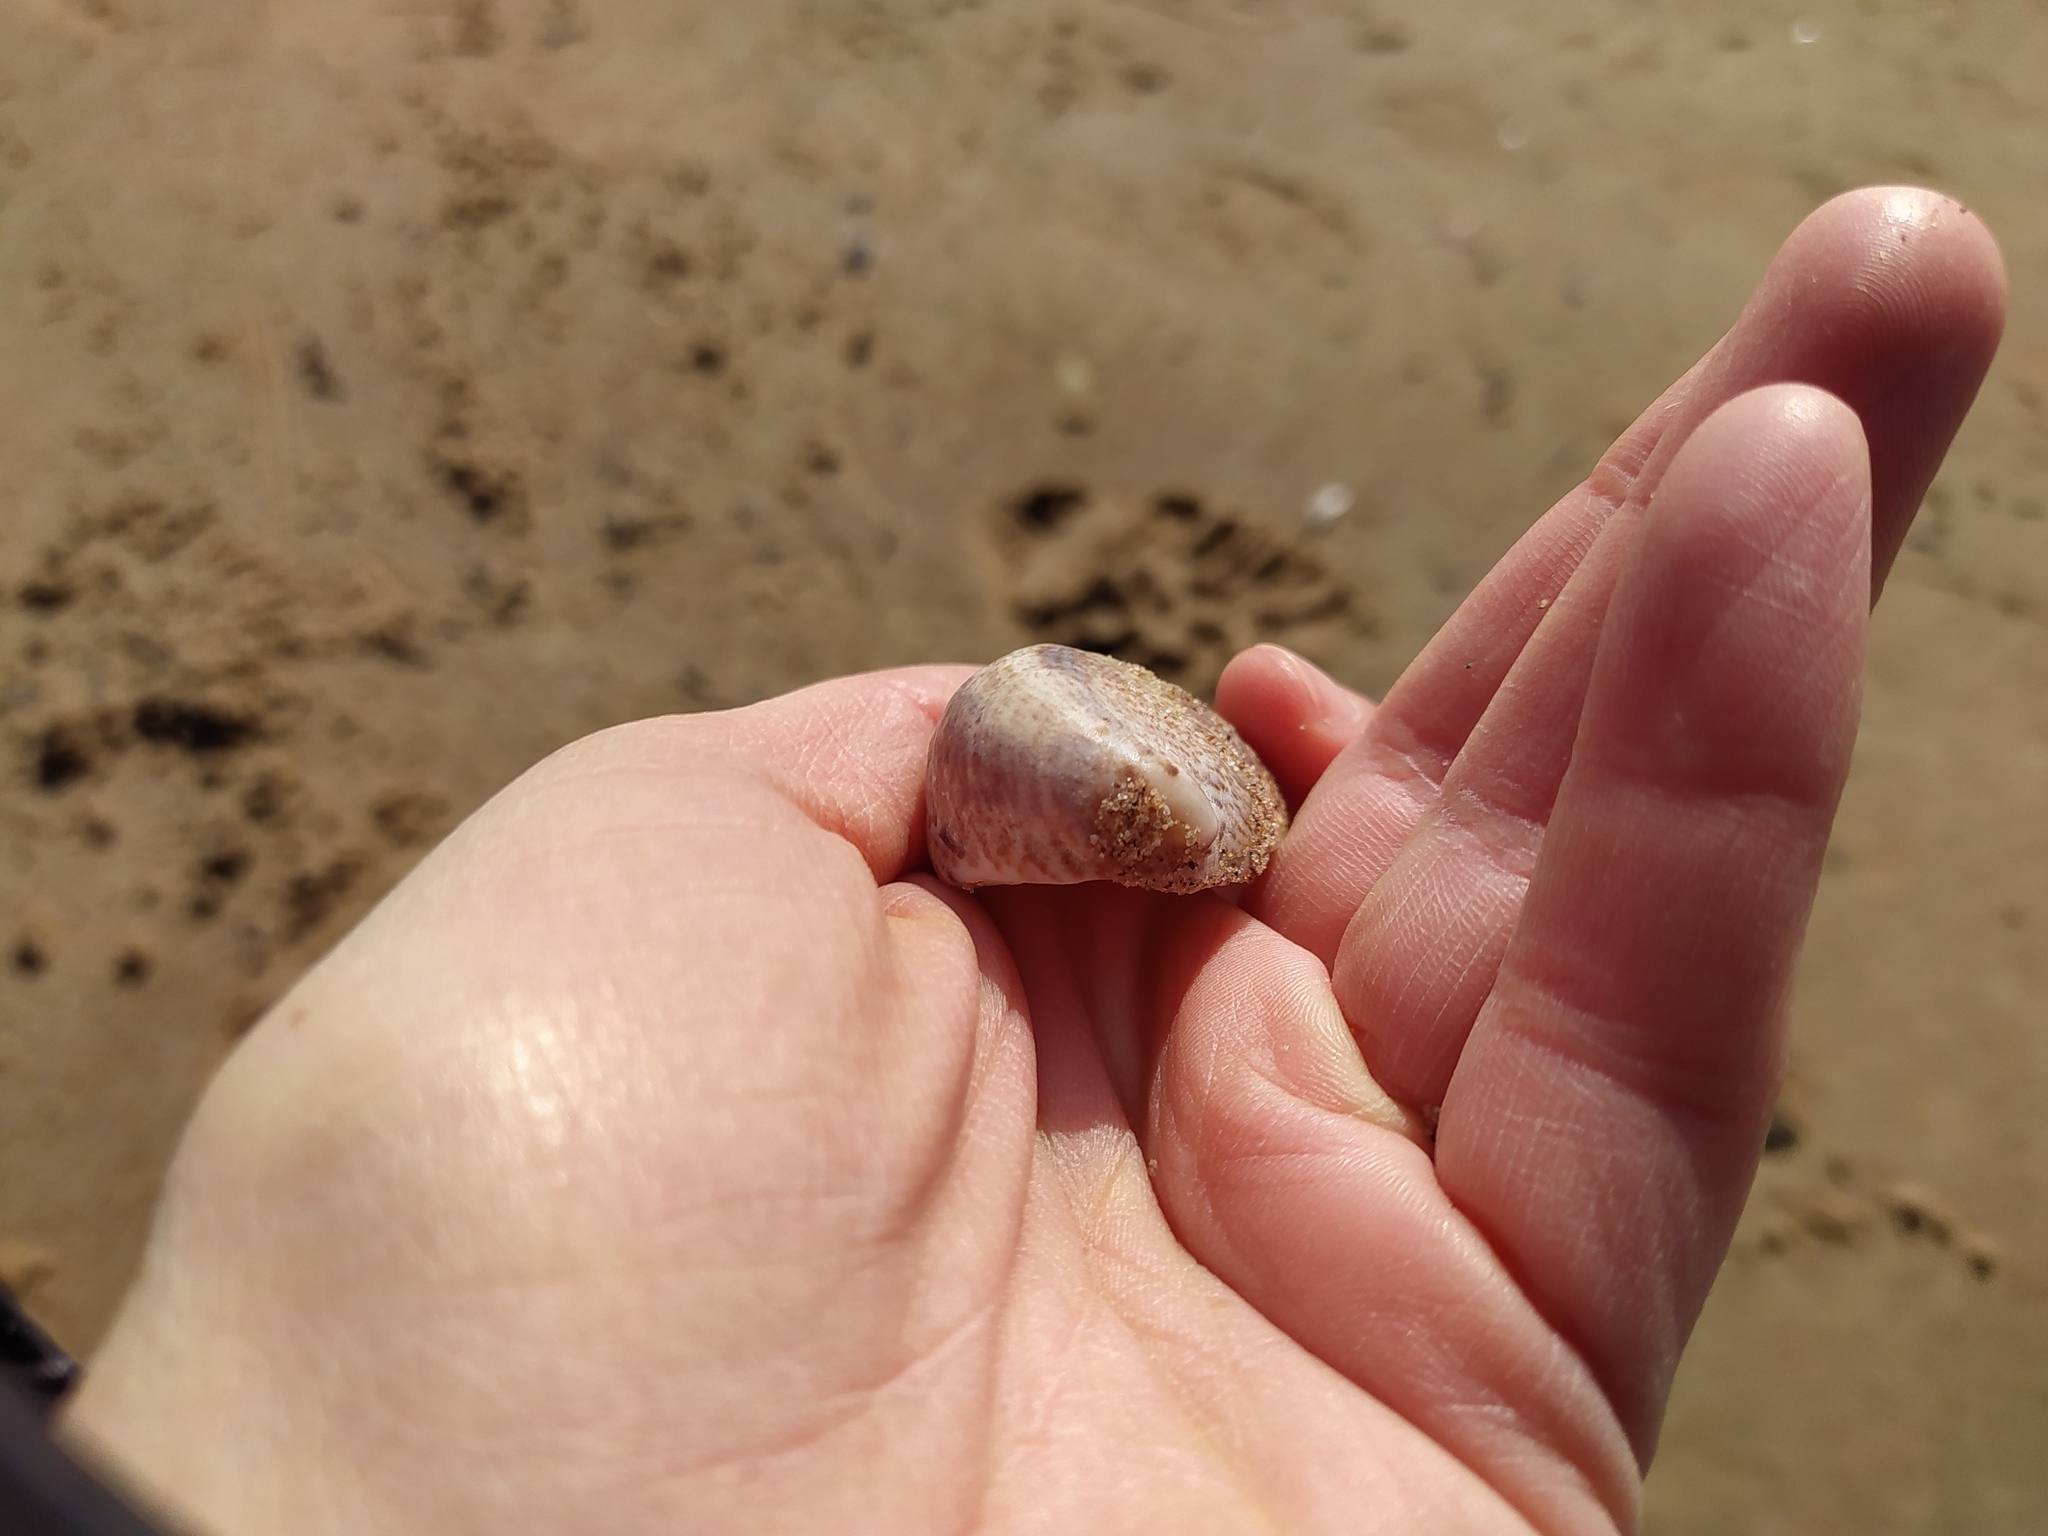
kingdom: Animalia
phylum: Mollusca
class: Gastropoda
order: Littorinimorpha
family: Calyptraeidae
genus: Crepidula
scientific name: Crepidula fornicata
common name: Slipper limpet
